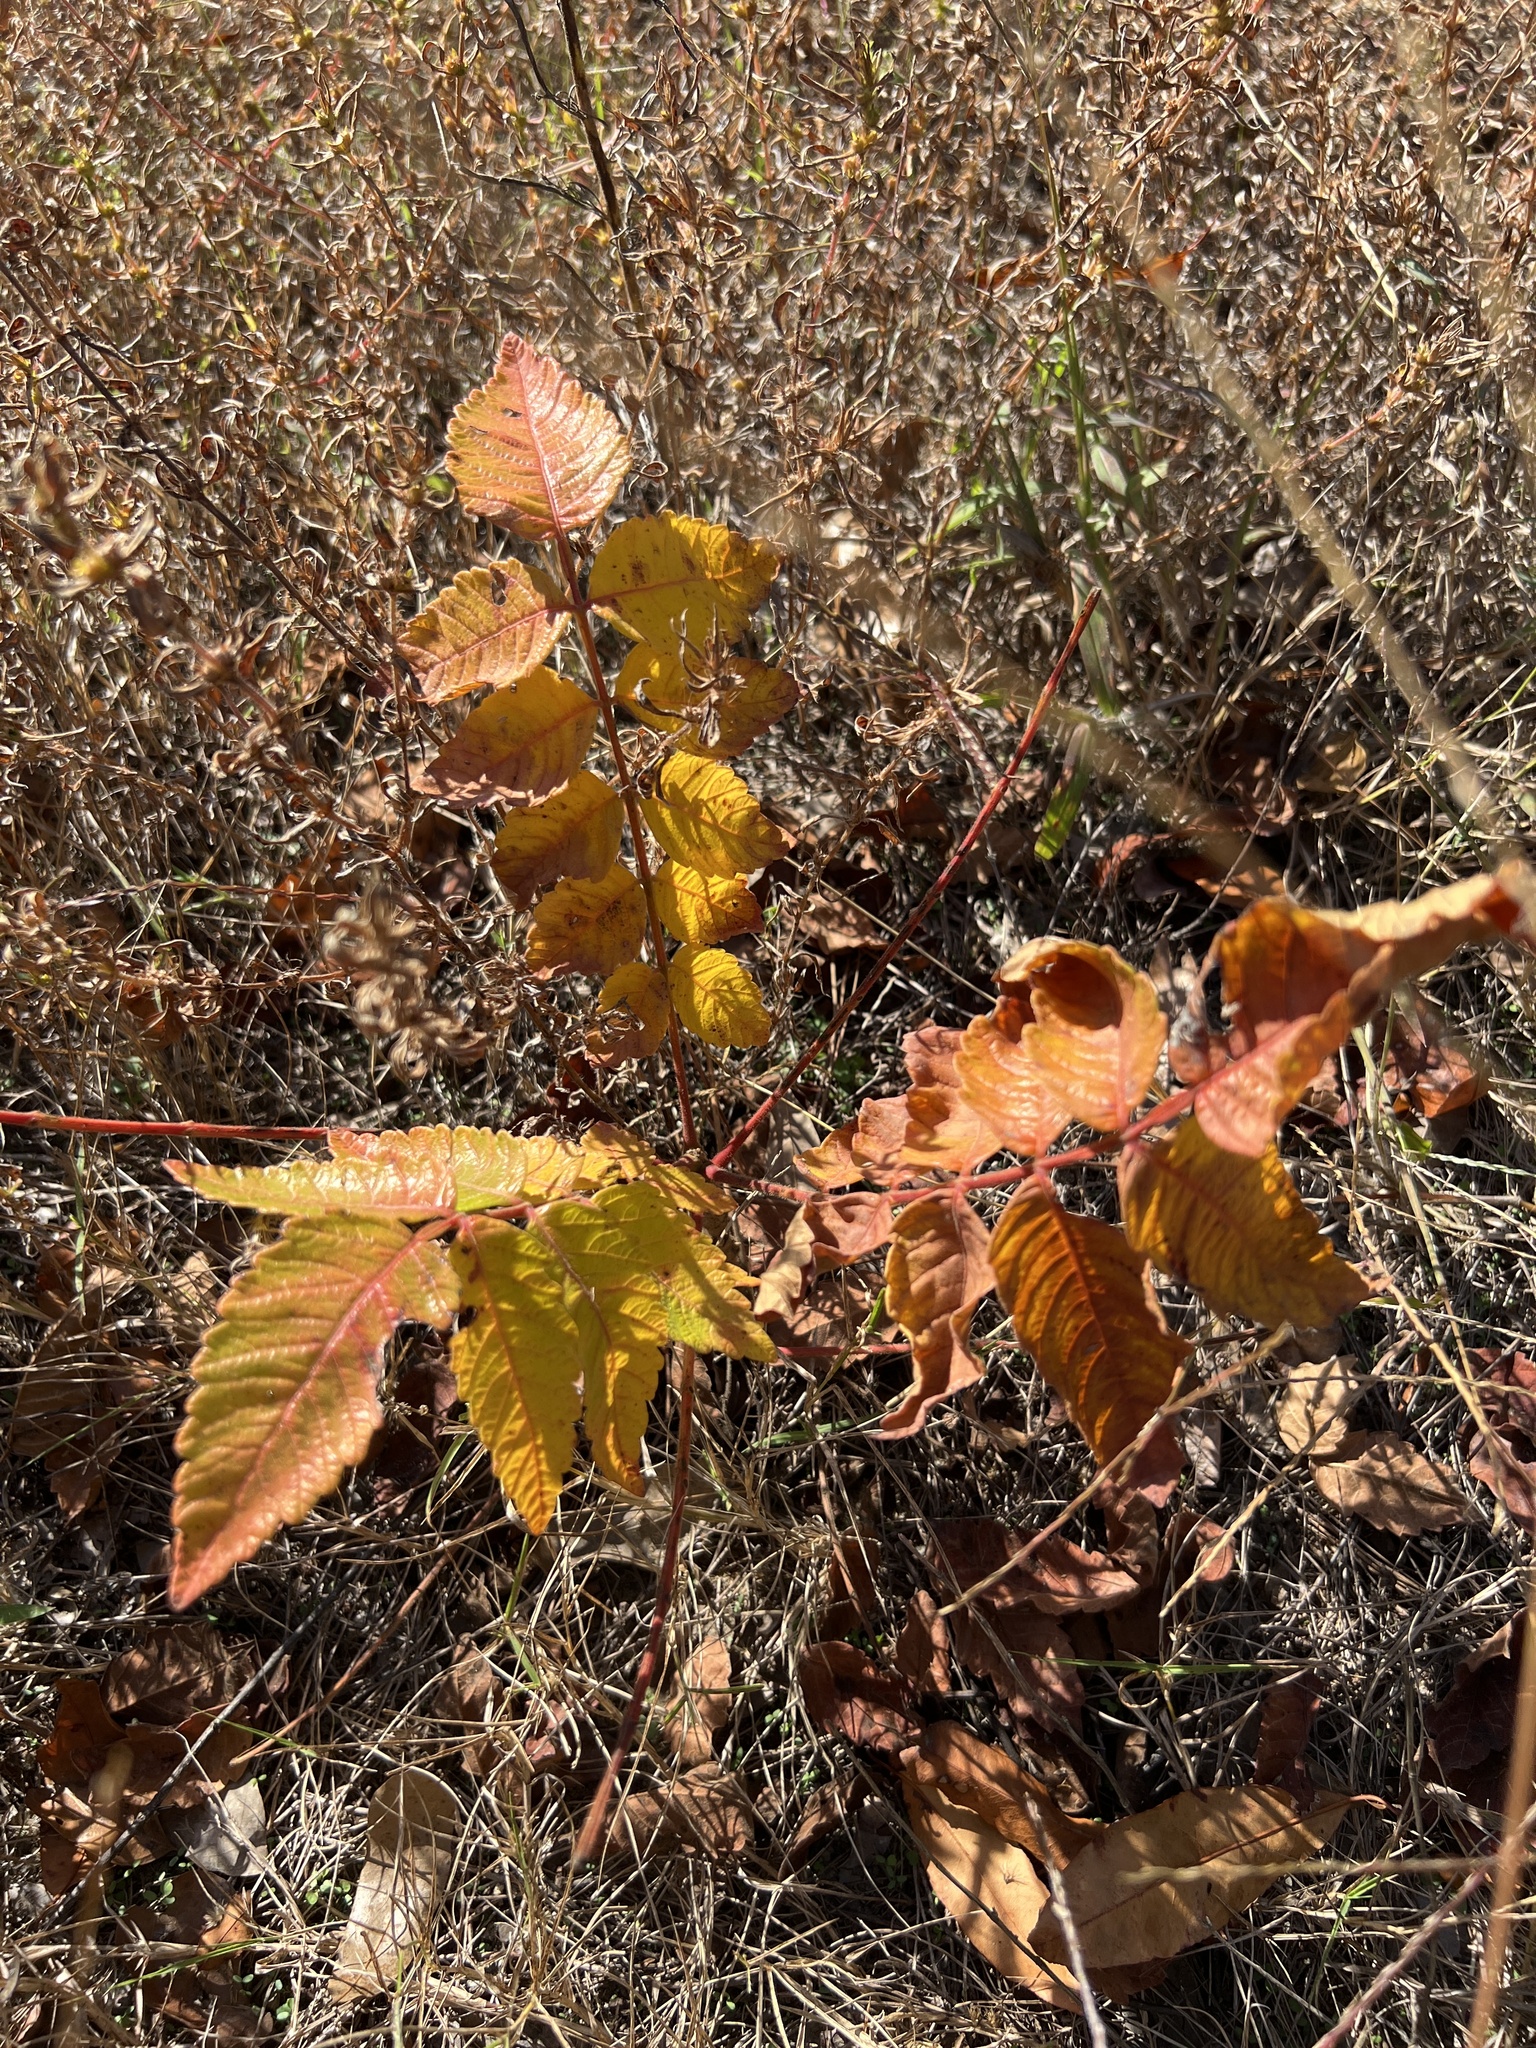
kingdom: Plantae
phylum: Tracheophyta
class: Magnoliopsida
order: Sapindales
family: Anacardiaceae
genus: Rhus
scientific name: Rhus michauxii
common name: Michaux's sumac
